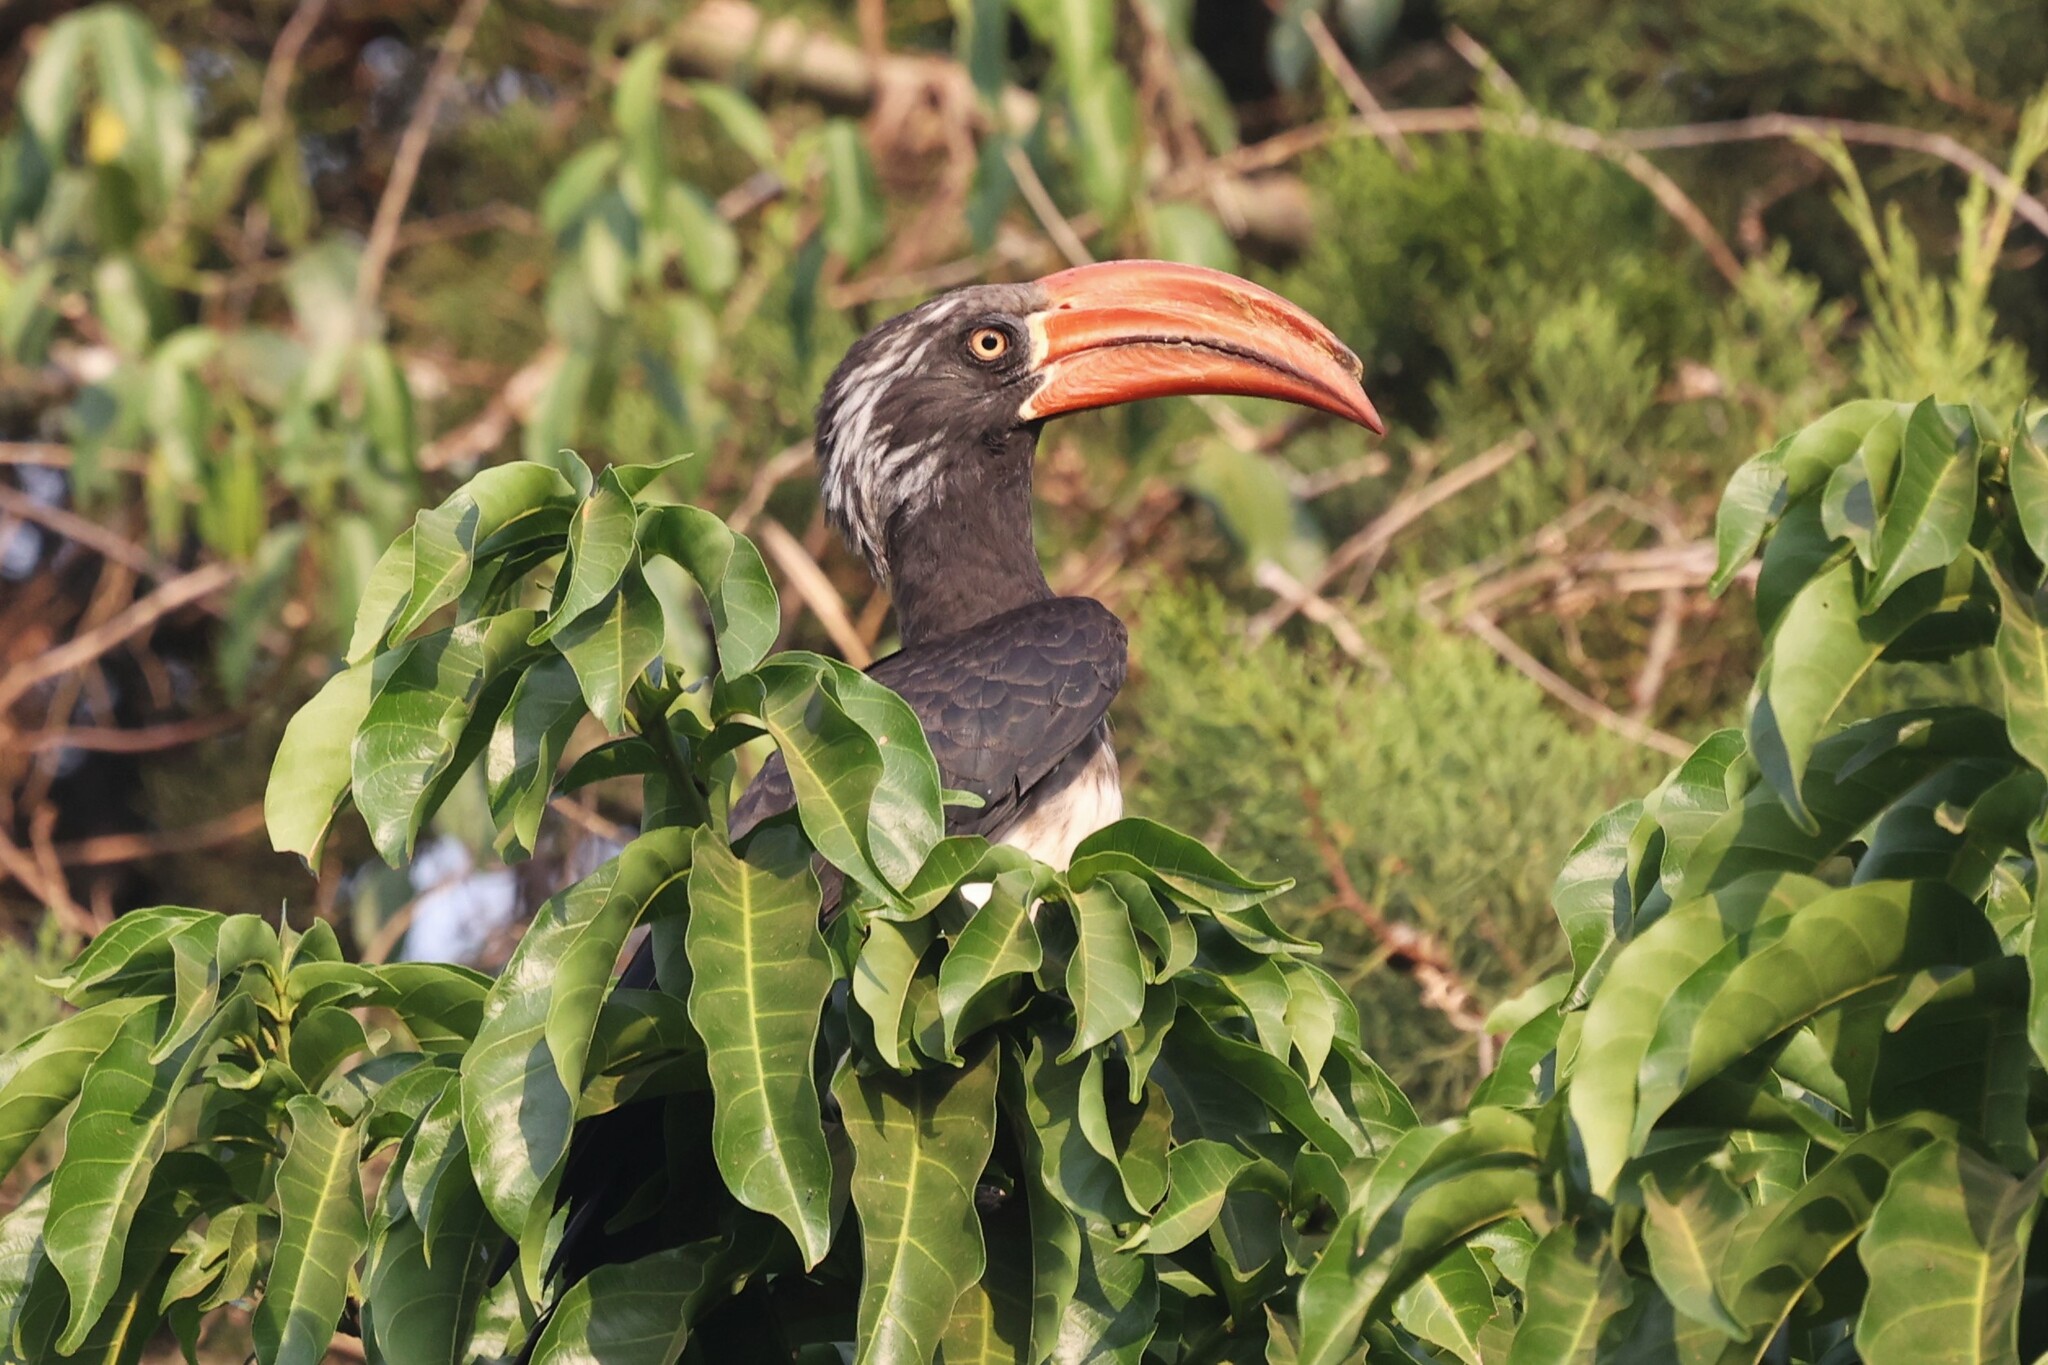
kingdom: Animalia
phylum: Chordata
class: Aves
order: Bucerotiformes
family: Bucerotidae
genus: Lophoceros
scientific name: Lophoceros alboterminatus
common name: Crowned hornbill
